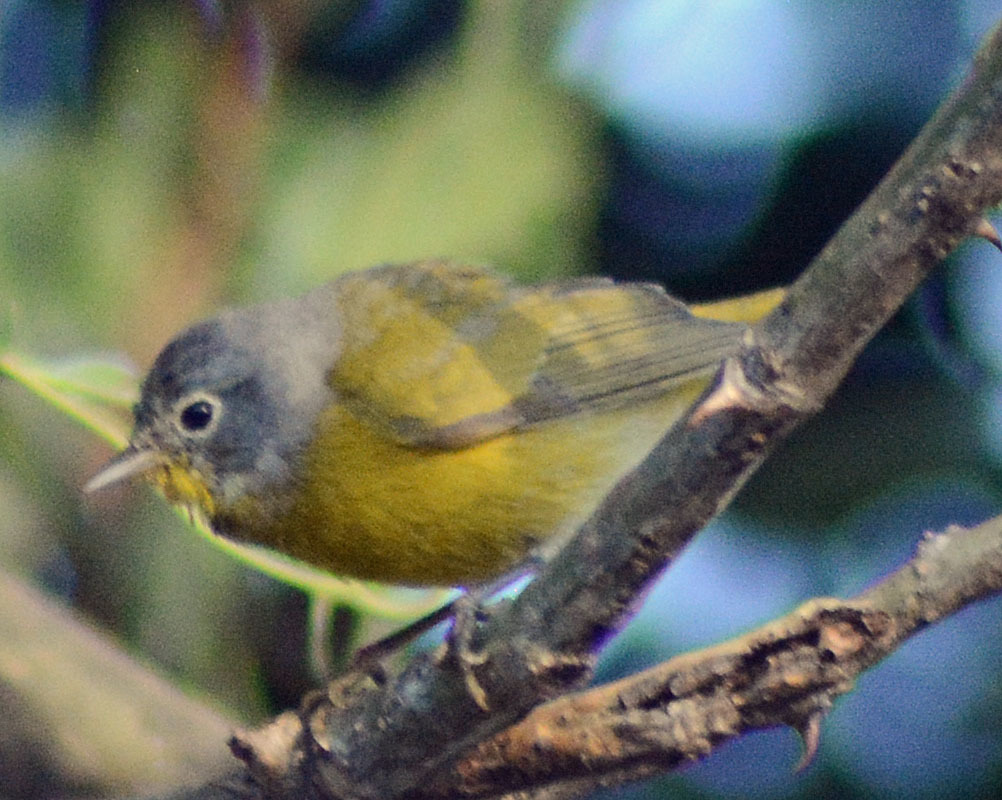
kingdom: Animalia
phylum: Chordata
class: Aves
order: Passeriformes
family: Parulidae
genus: Leiothlypis
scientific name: Leiothlypis ruficapilla
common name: Nashville warbler
